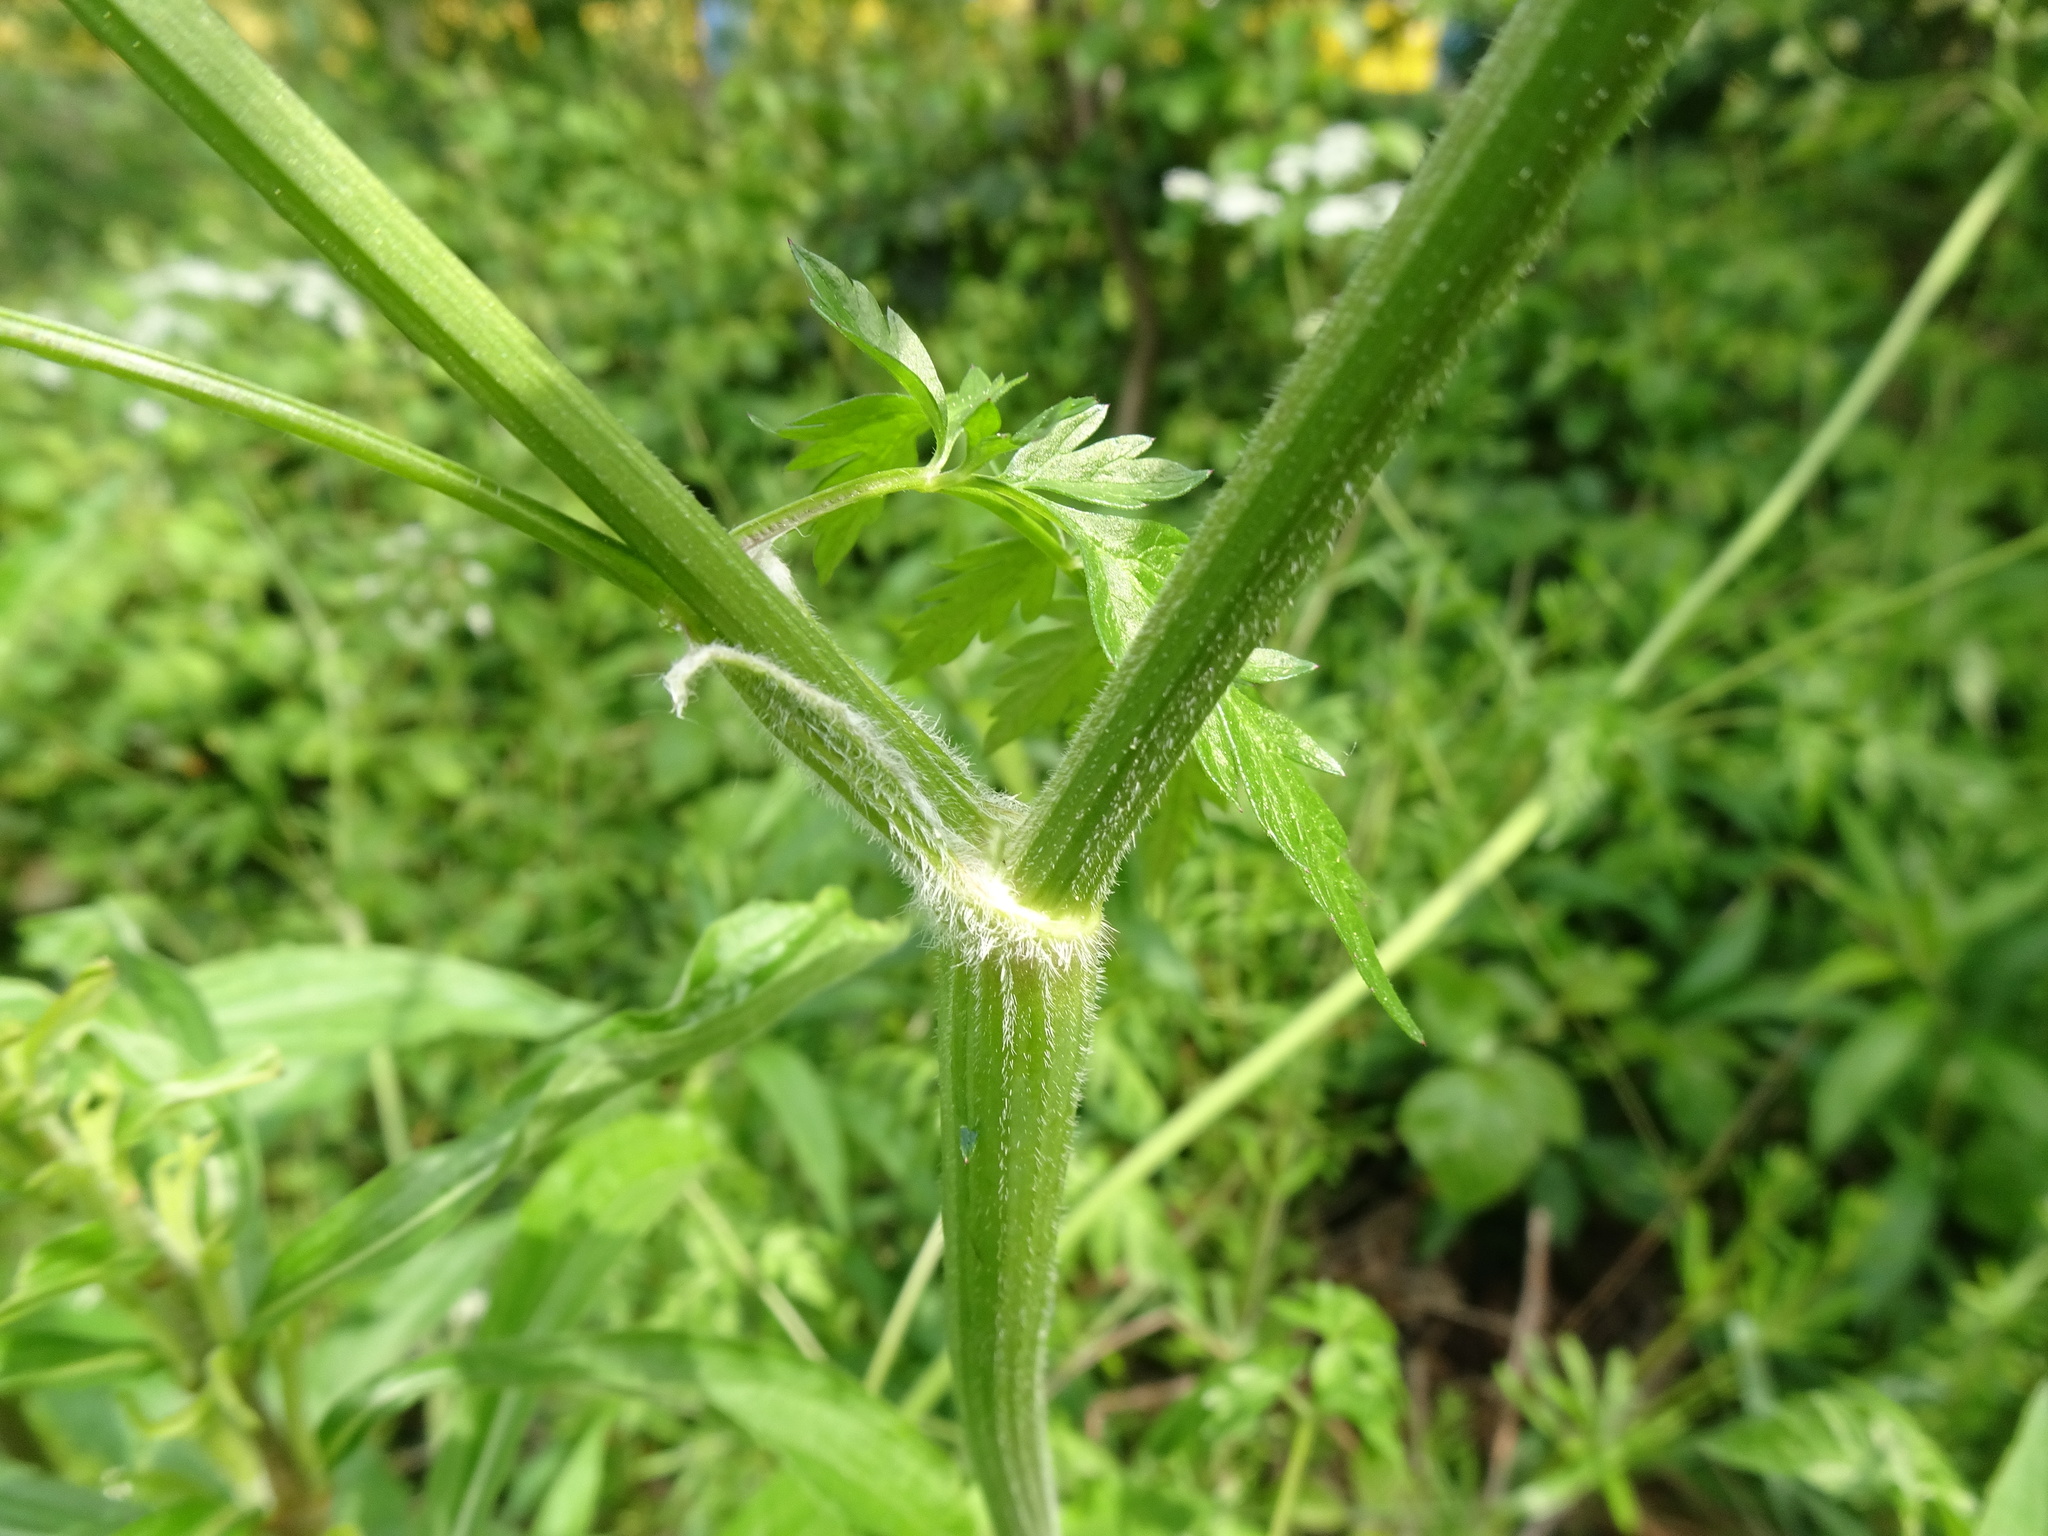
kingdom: Plantae
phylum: Tracheophyta
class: Magnoliopsida
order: Apiales
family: Apiaceae
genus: Anthriscus
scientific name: Anthriscus sylvestris
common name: Cow parsley
